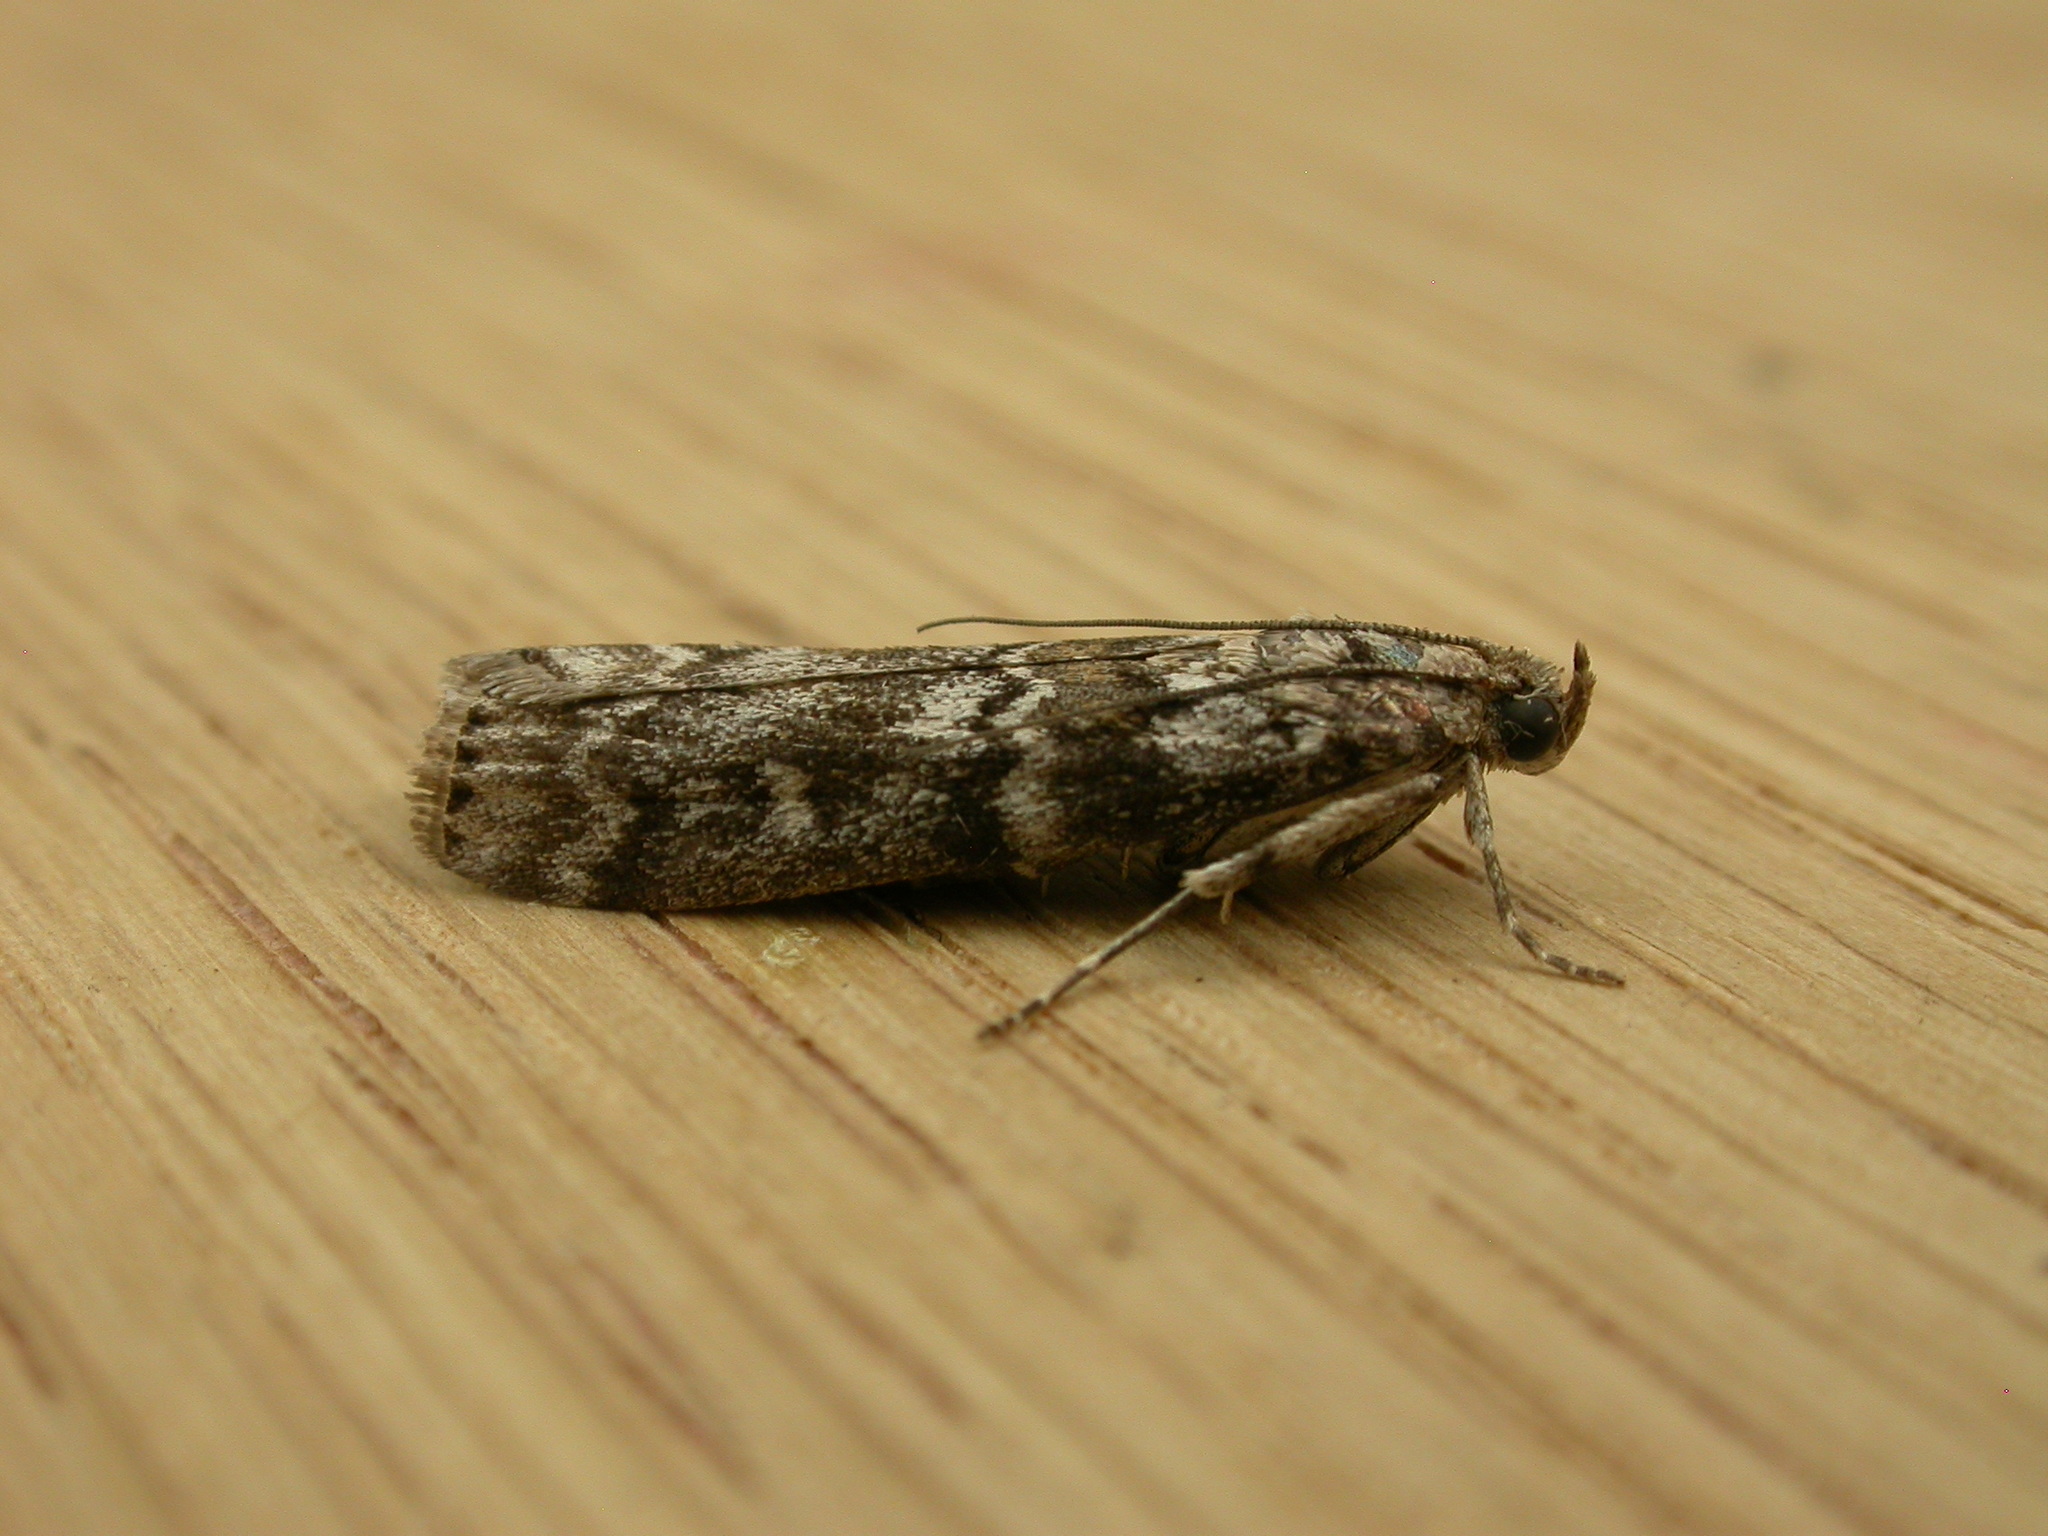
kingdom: Animalia
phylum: Arthropoda
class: Insecta
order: Lepidoptera
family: Pyralidae
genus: Dioryctria
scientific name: Dioryctria abietella
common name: Dark pine knot-horn
